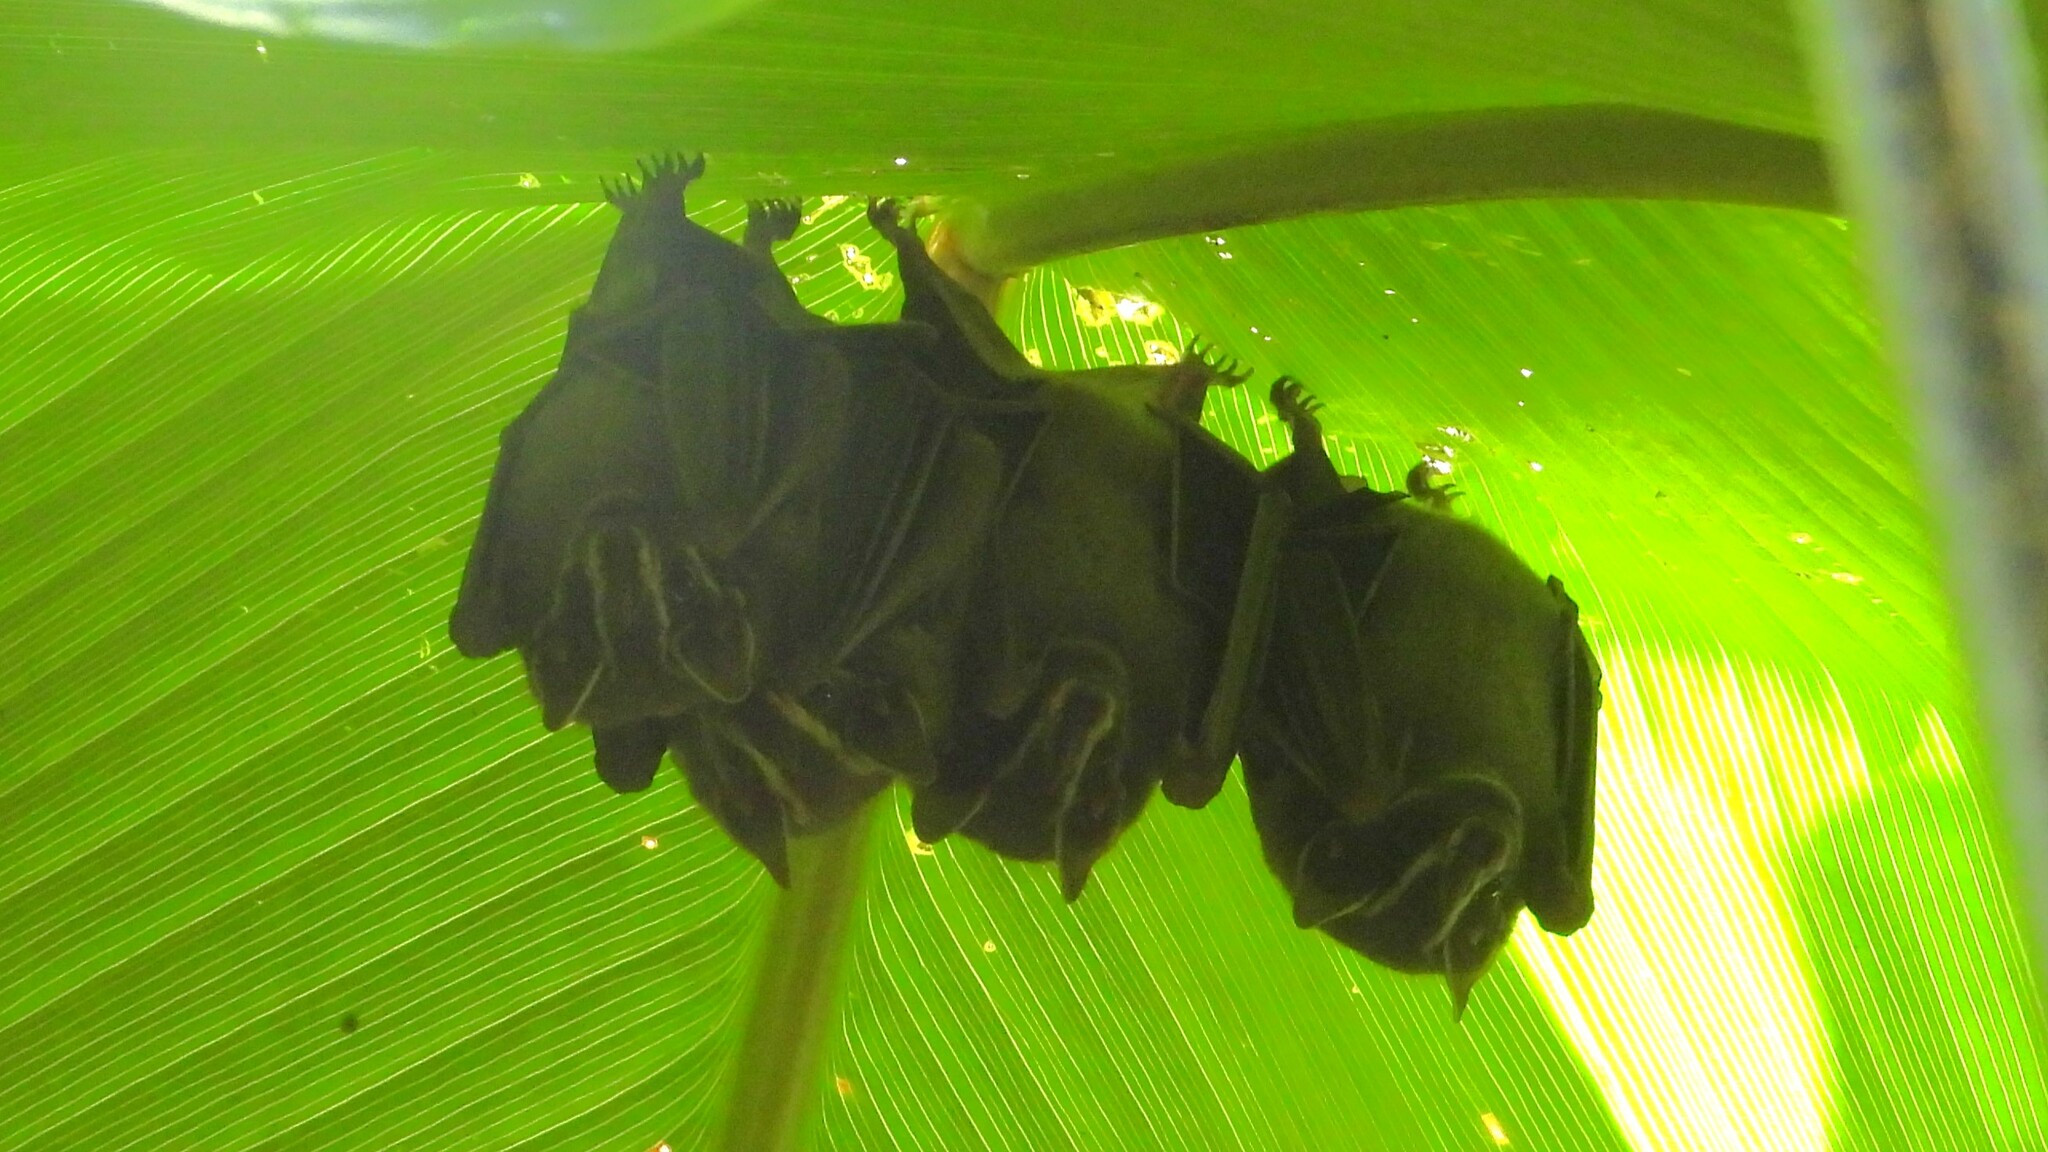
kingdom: Animalia
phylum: Chordata
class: Mammalia
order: Chiroptera
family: Phyllostomidae
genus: Uroderma
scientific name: Uroderma bilobatum
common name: Common tent-making bat
